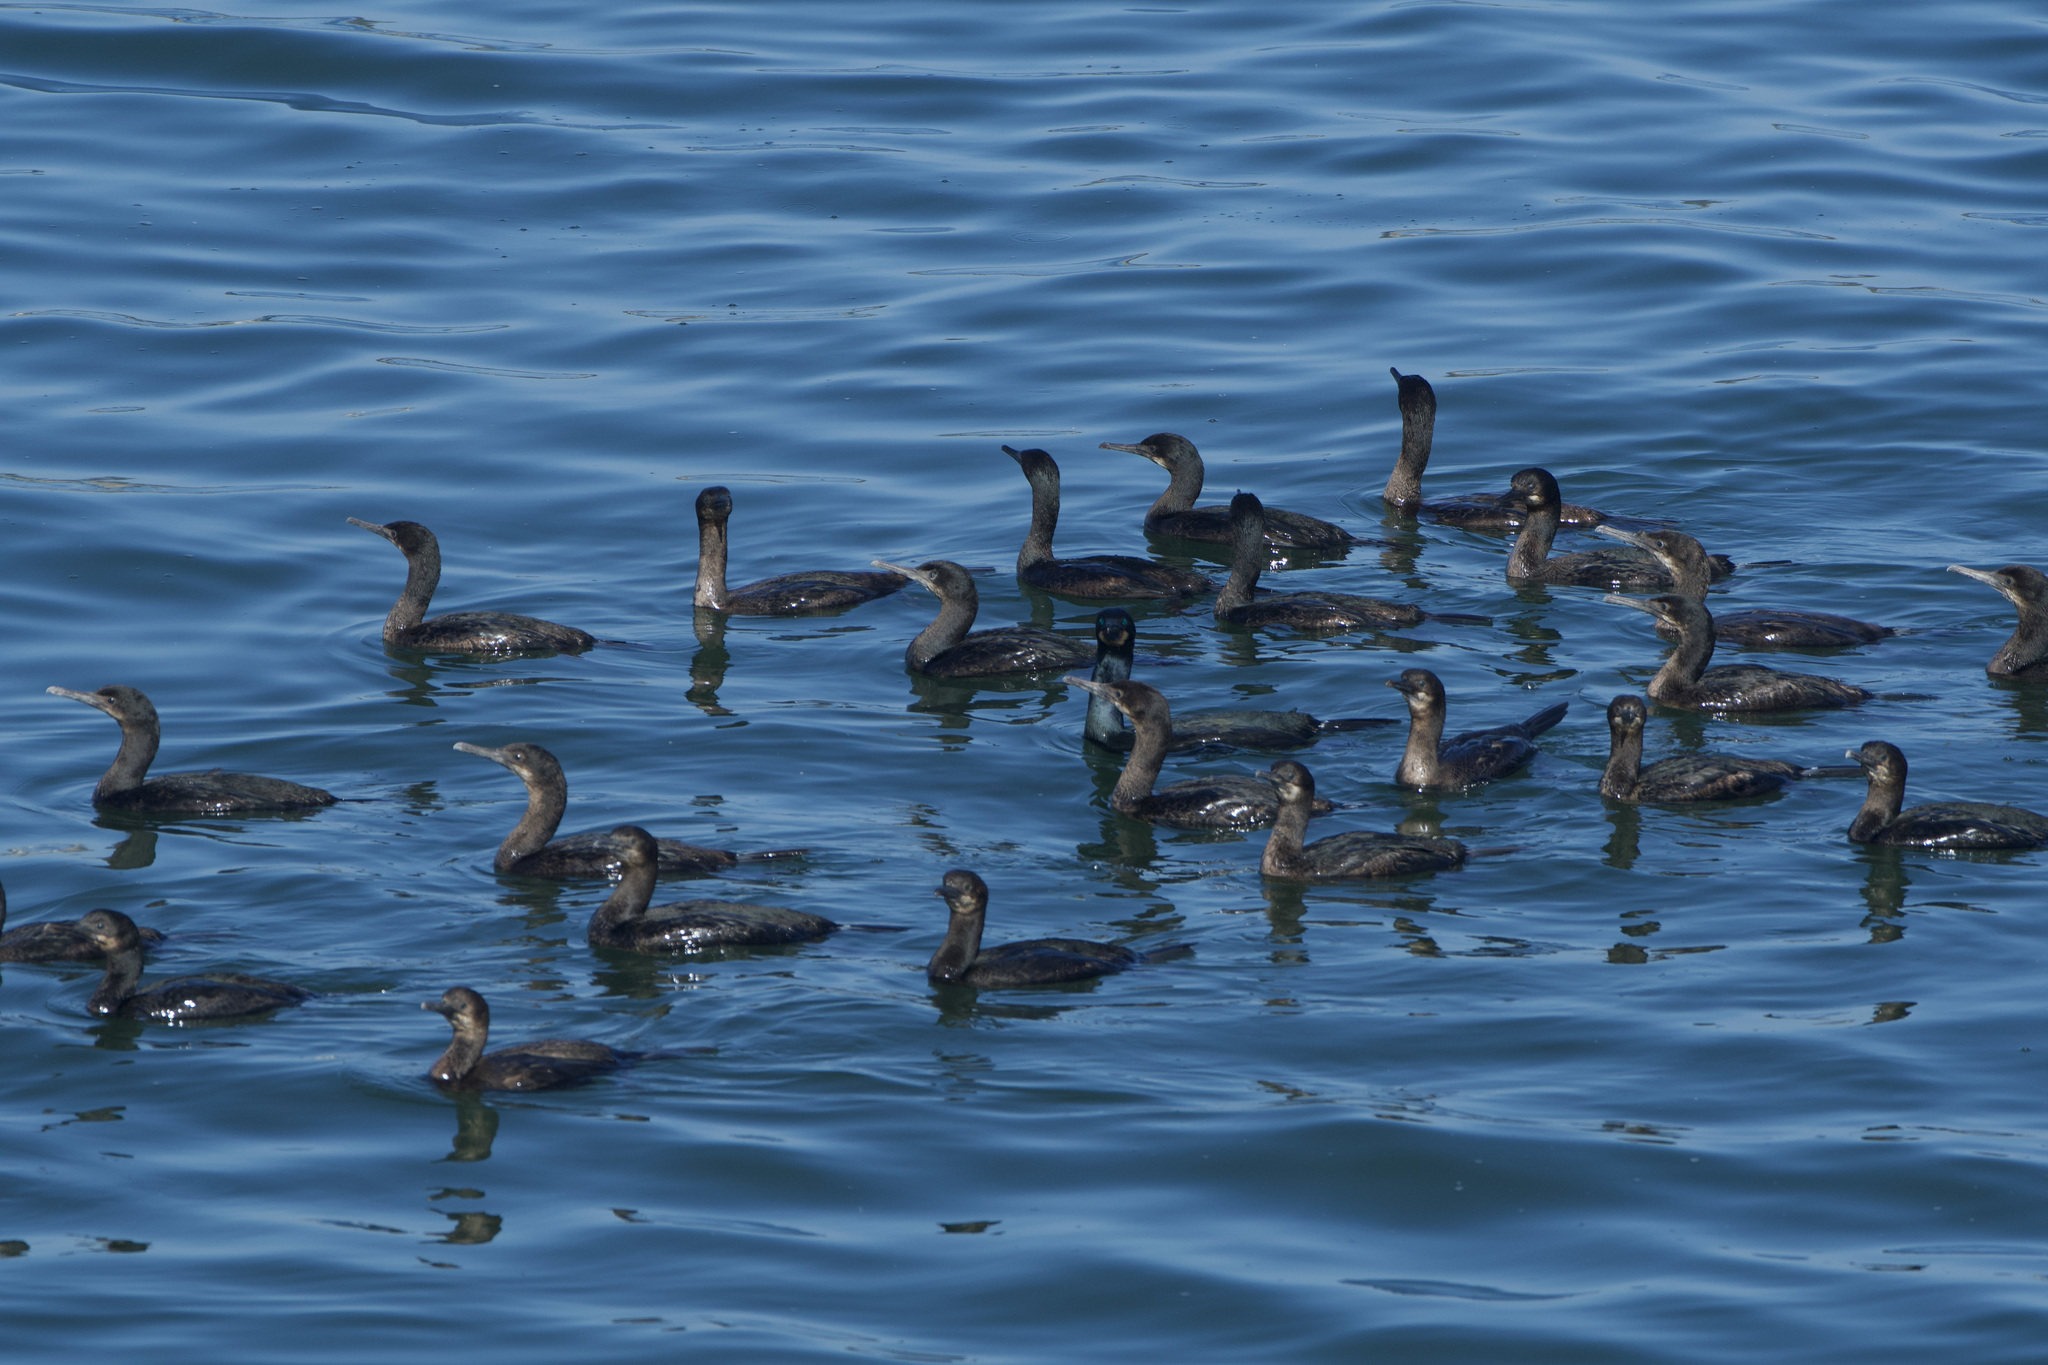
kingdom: Animalia
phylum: Chordata
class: Aves
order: Suliformes
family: Phalacrocoracidae
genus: Urile
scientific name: Urile penicillatus
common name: Brandt's cormorant
